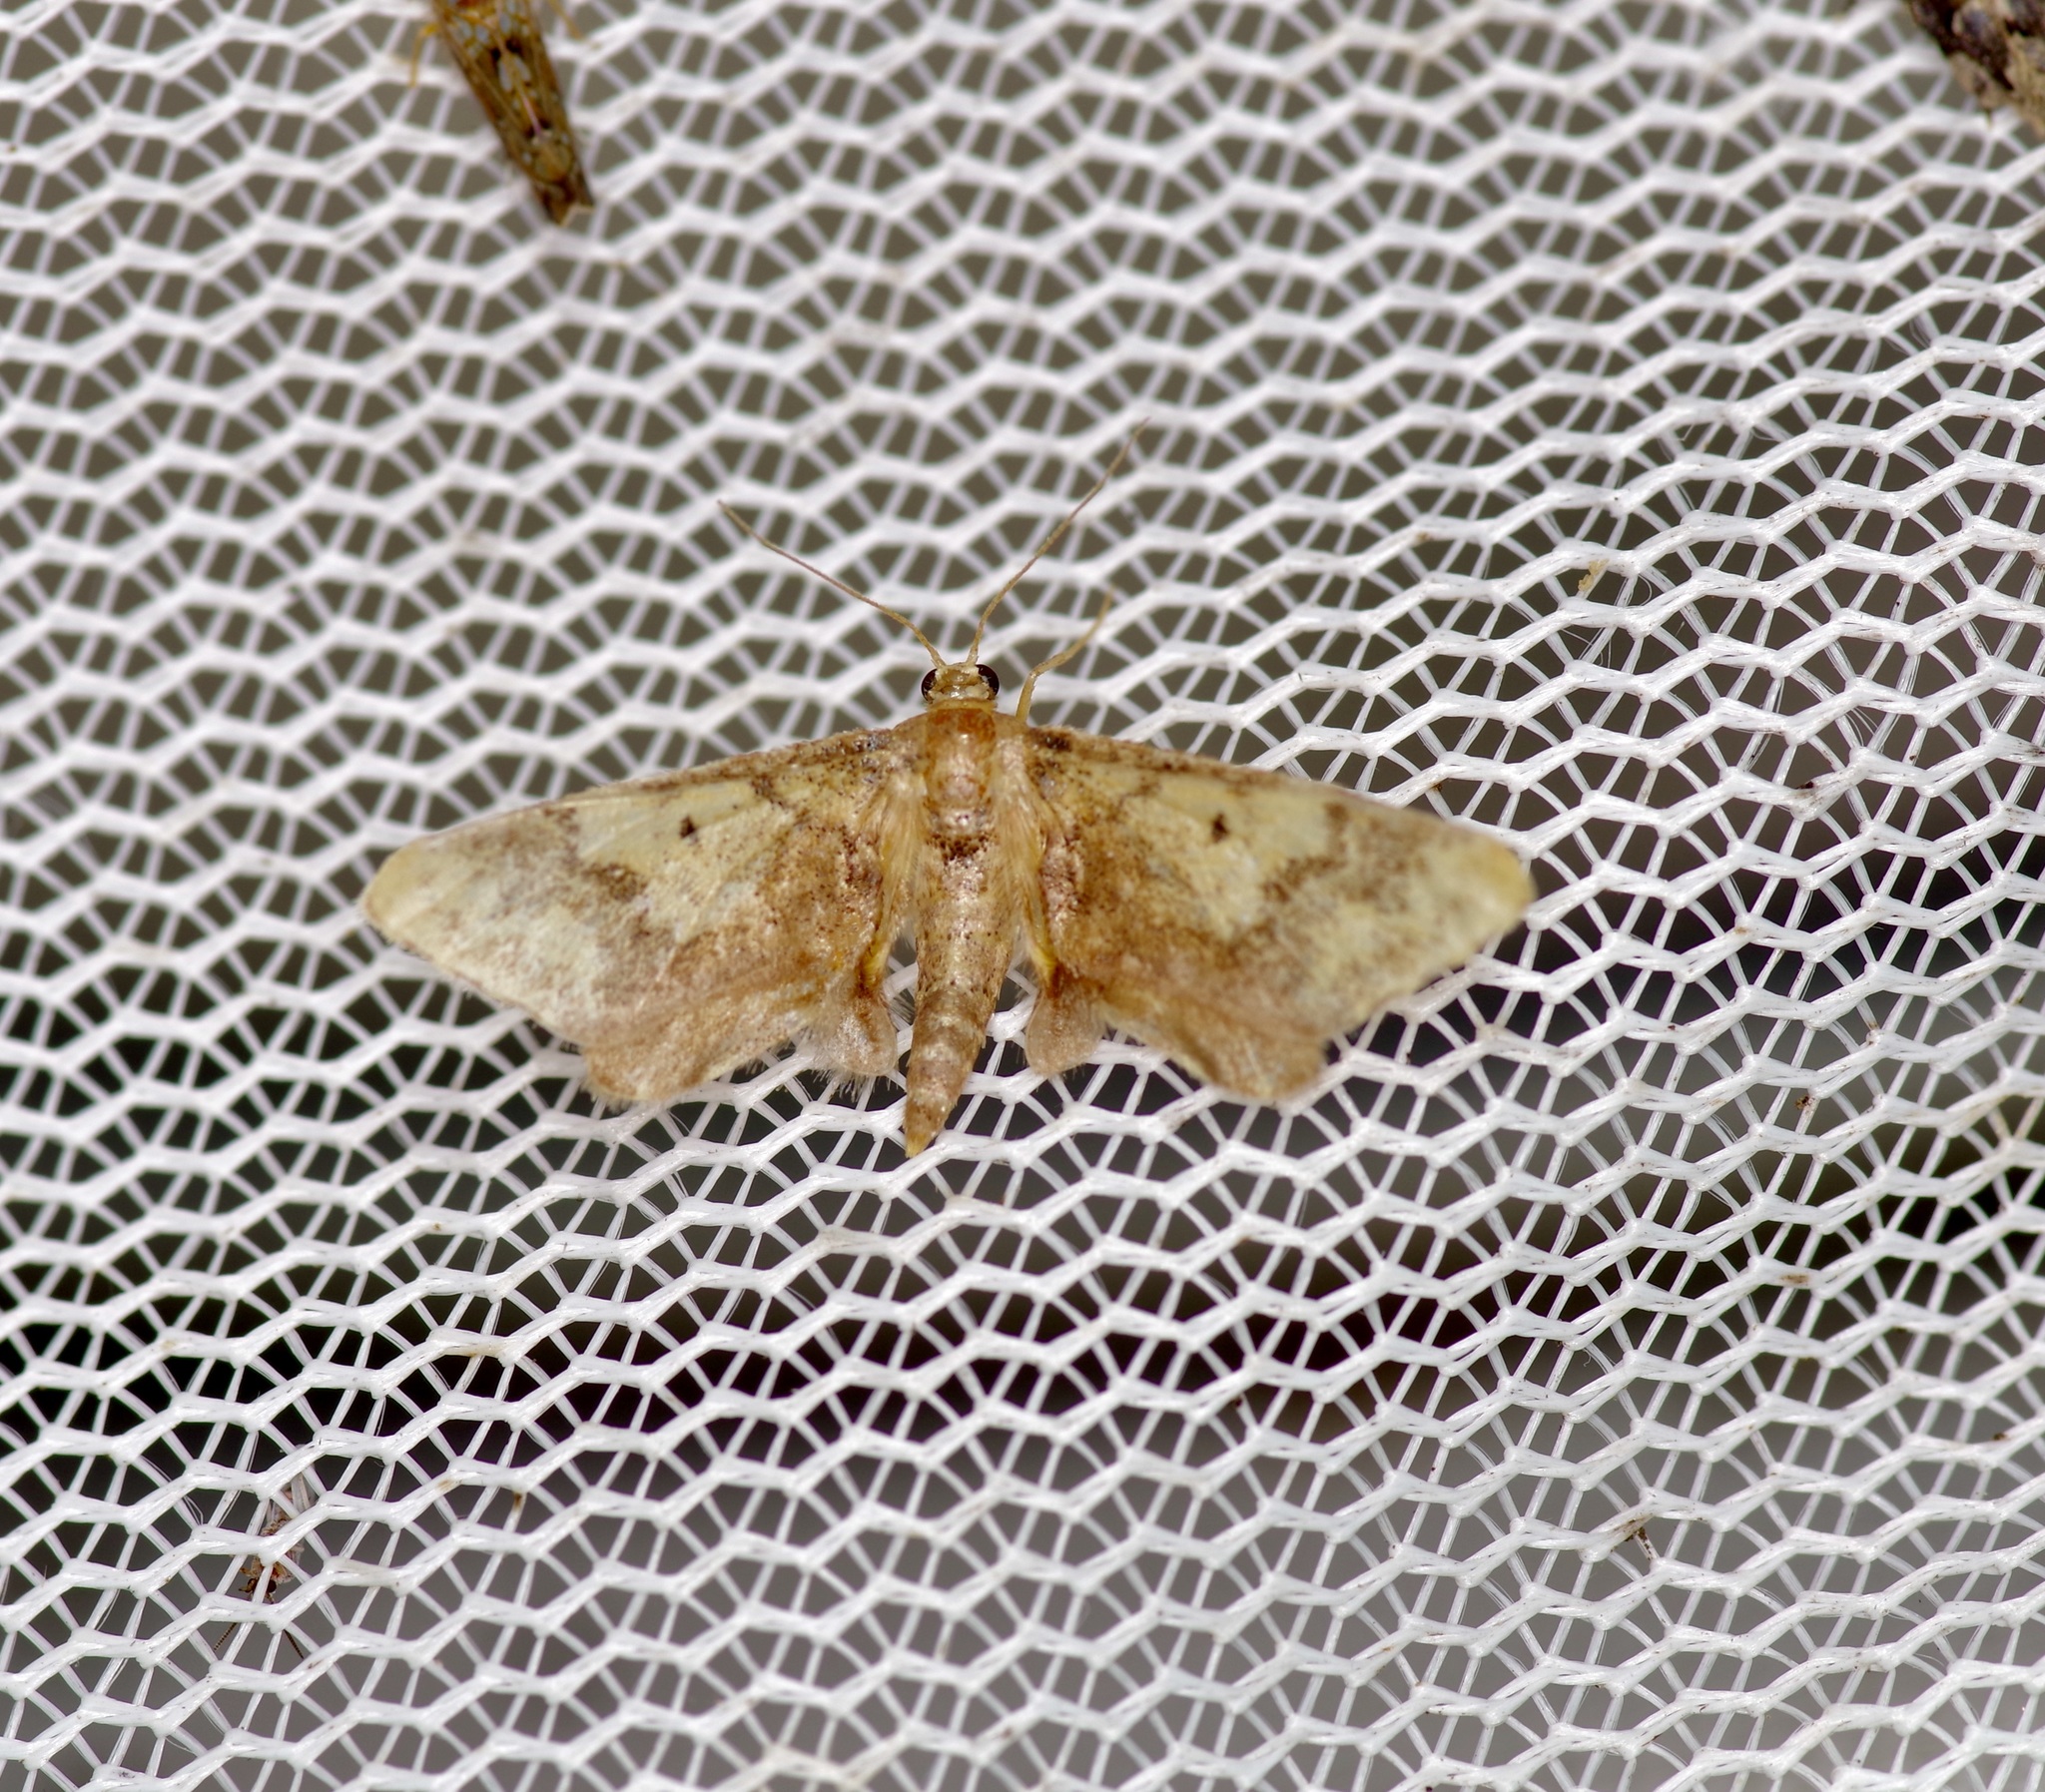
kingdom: Animalia
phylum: Arthropoda
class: Insecta
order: Lepidoptera
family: Geometridae
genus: Idaea
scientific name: Idaea furciferata
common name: Notch-winged wave
